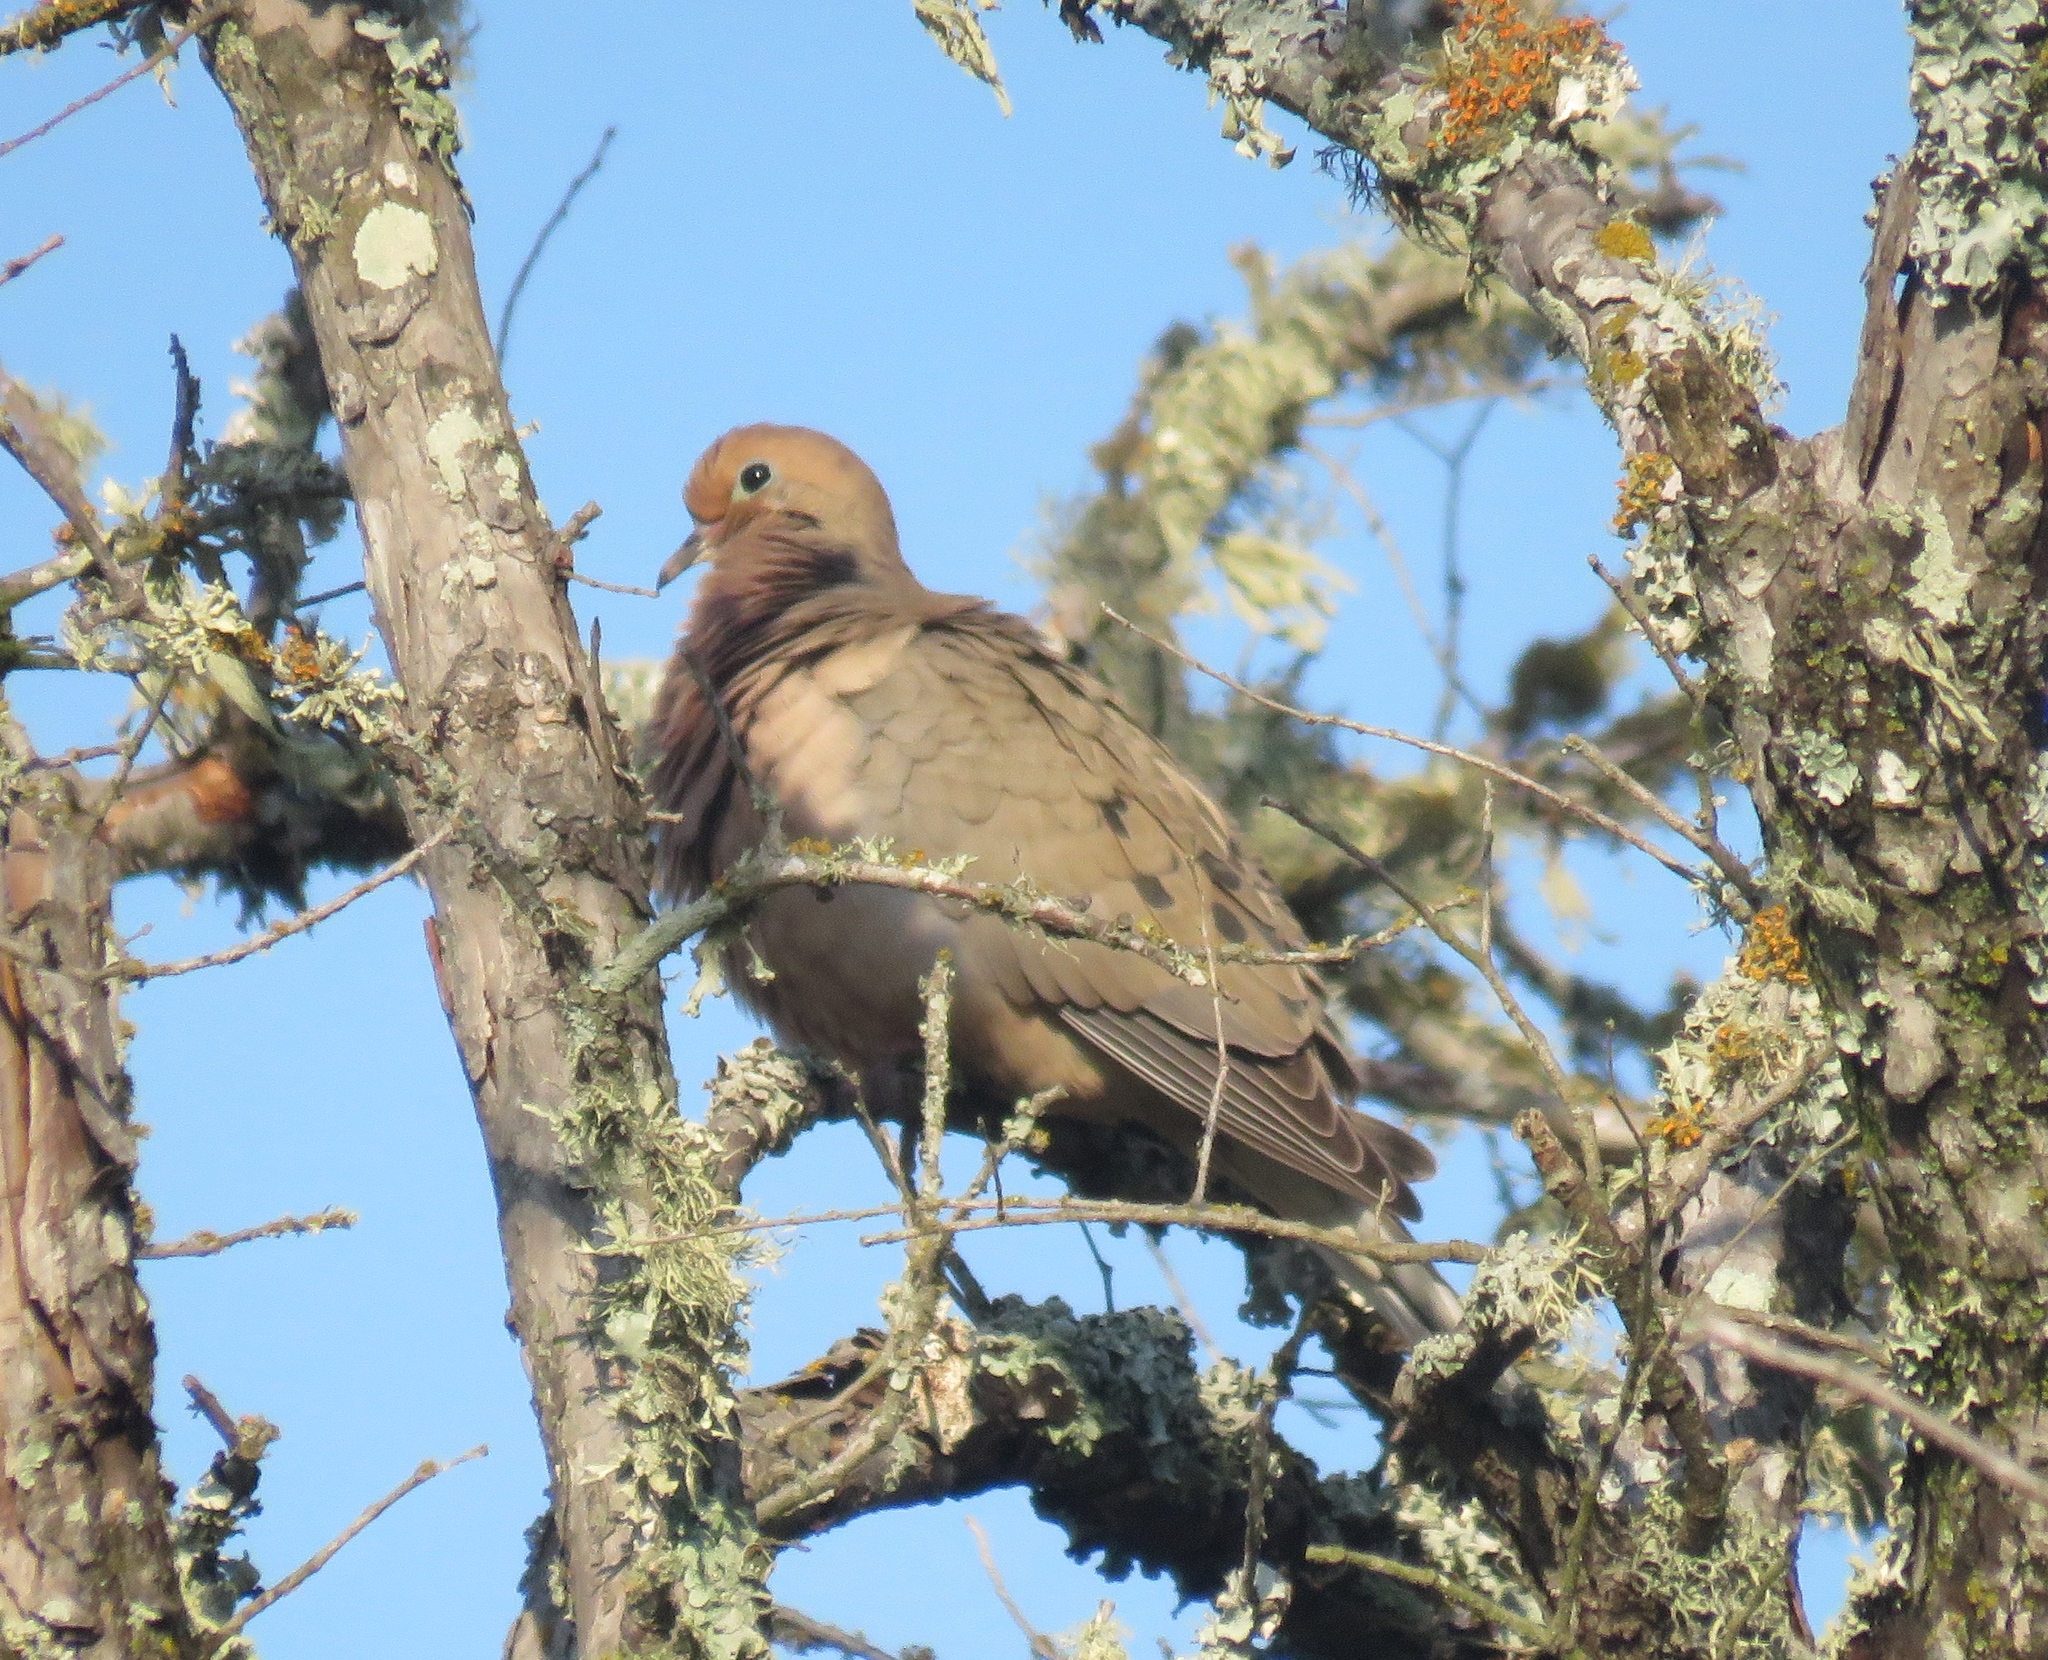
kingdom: Animalia
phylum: Chordata
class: Aves
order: Columbiformes
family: Columbidae
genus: Zenaida
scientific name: Zenaida macroura
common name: Mourning dove
